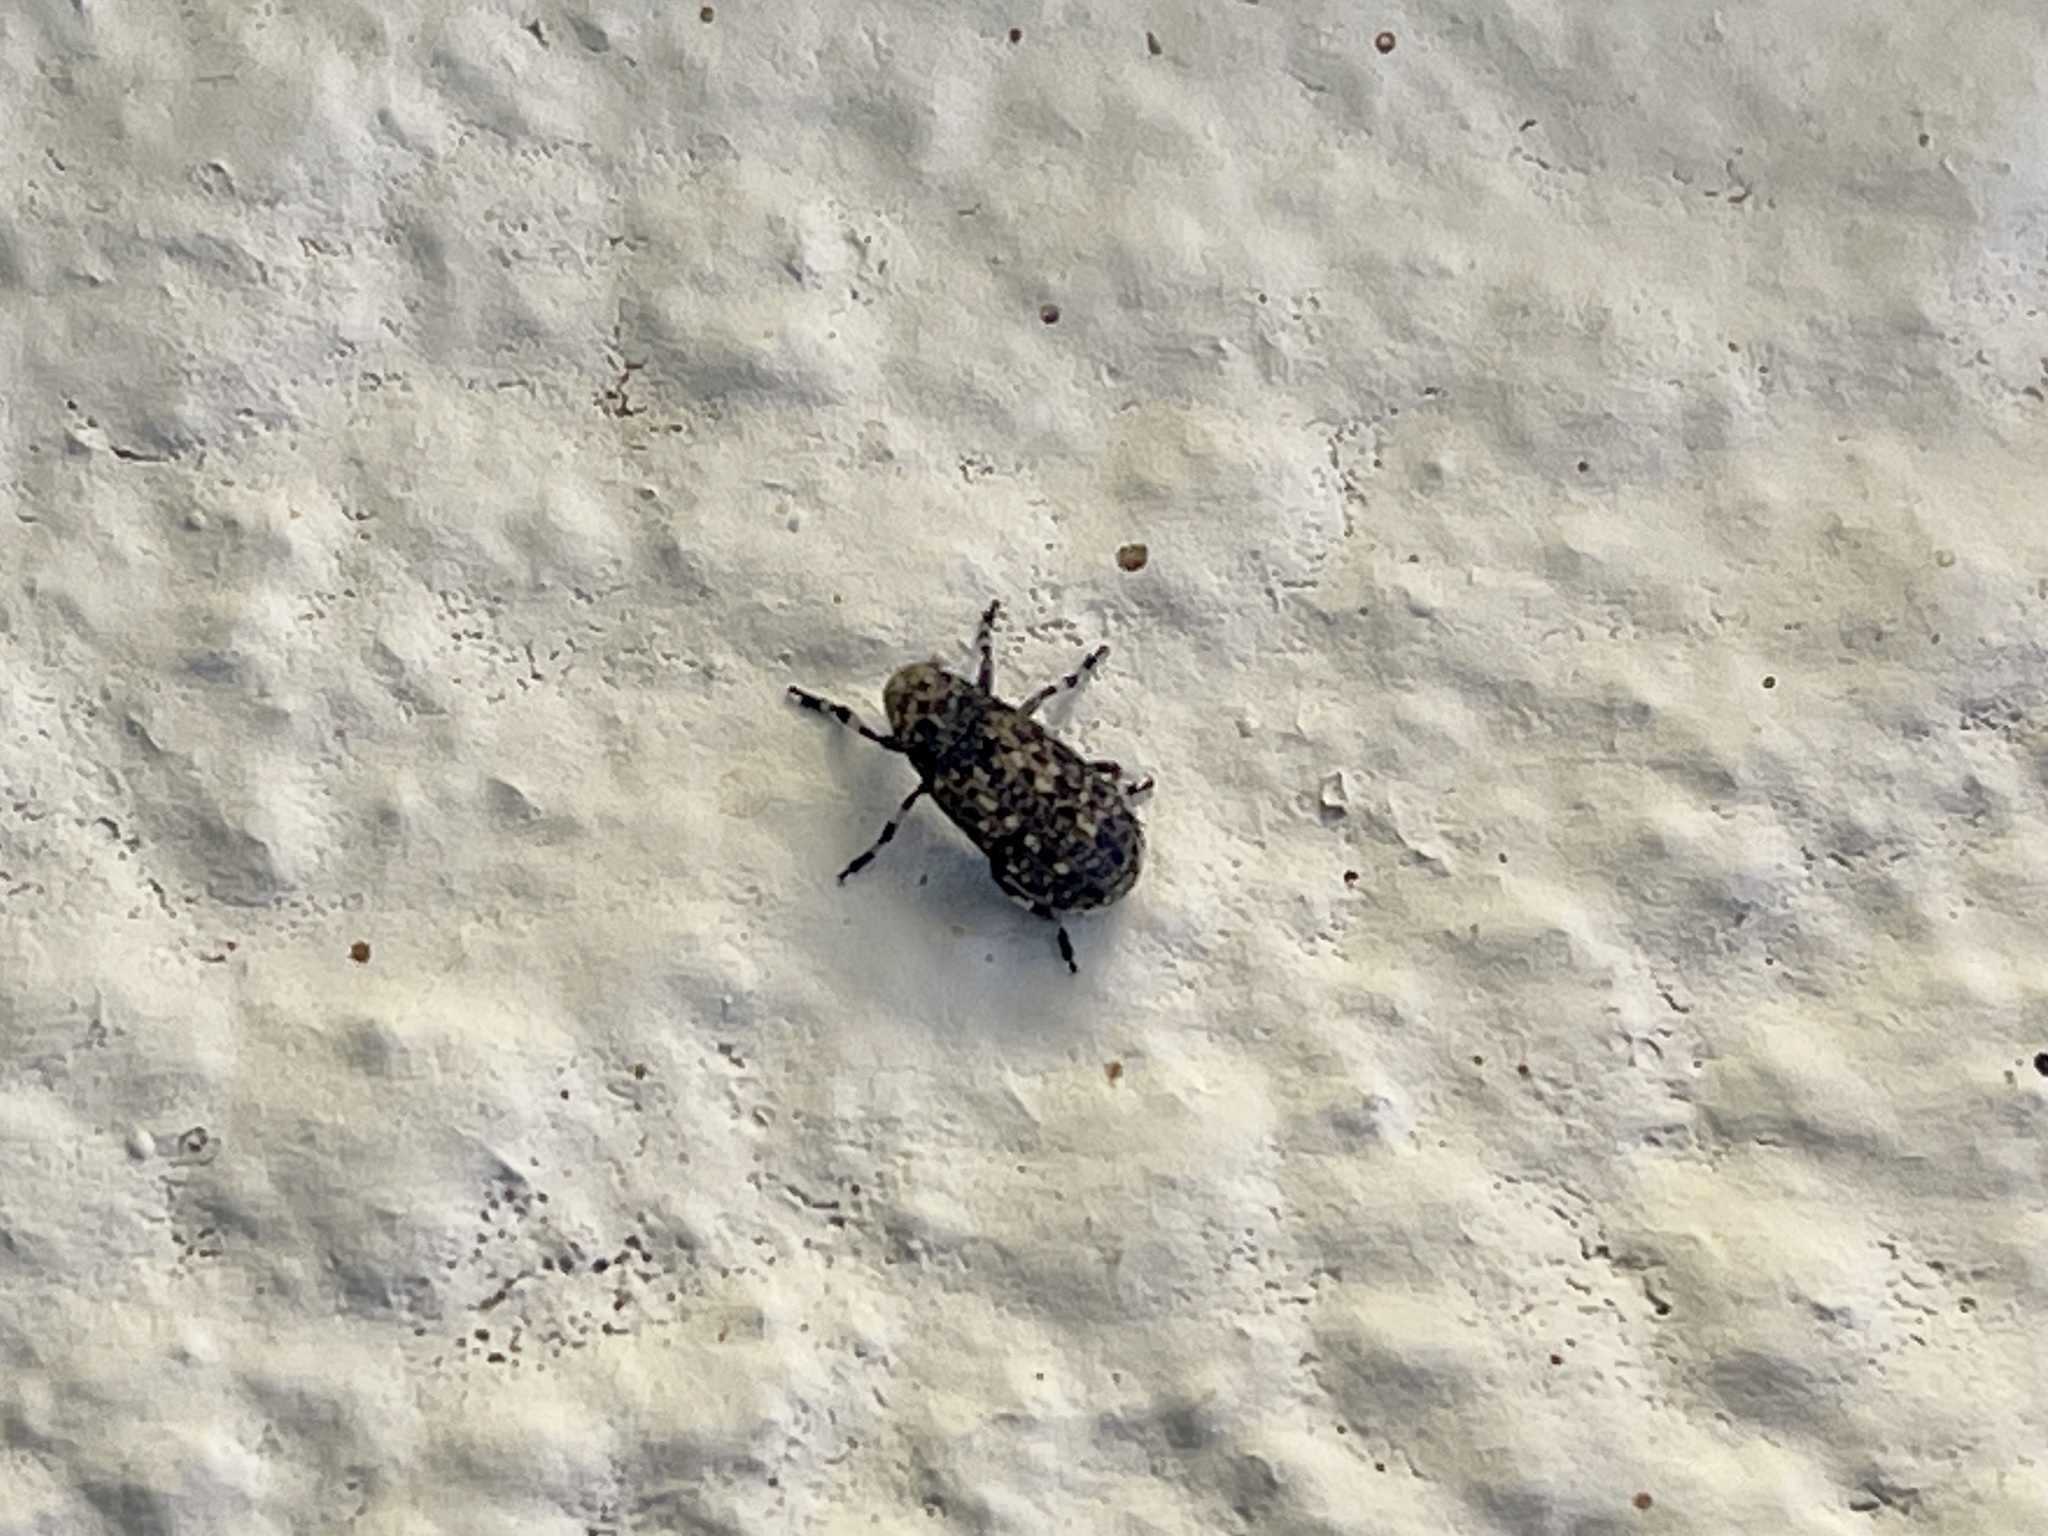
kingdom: Animalia
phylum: Arthropoda
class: Insecta
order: Coleoptera
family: Anthribidae
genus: Euparius
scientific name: Euparius subtessellatus
